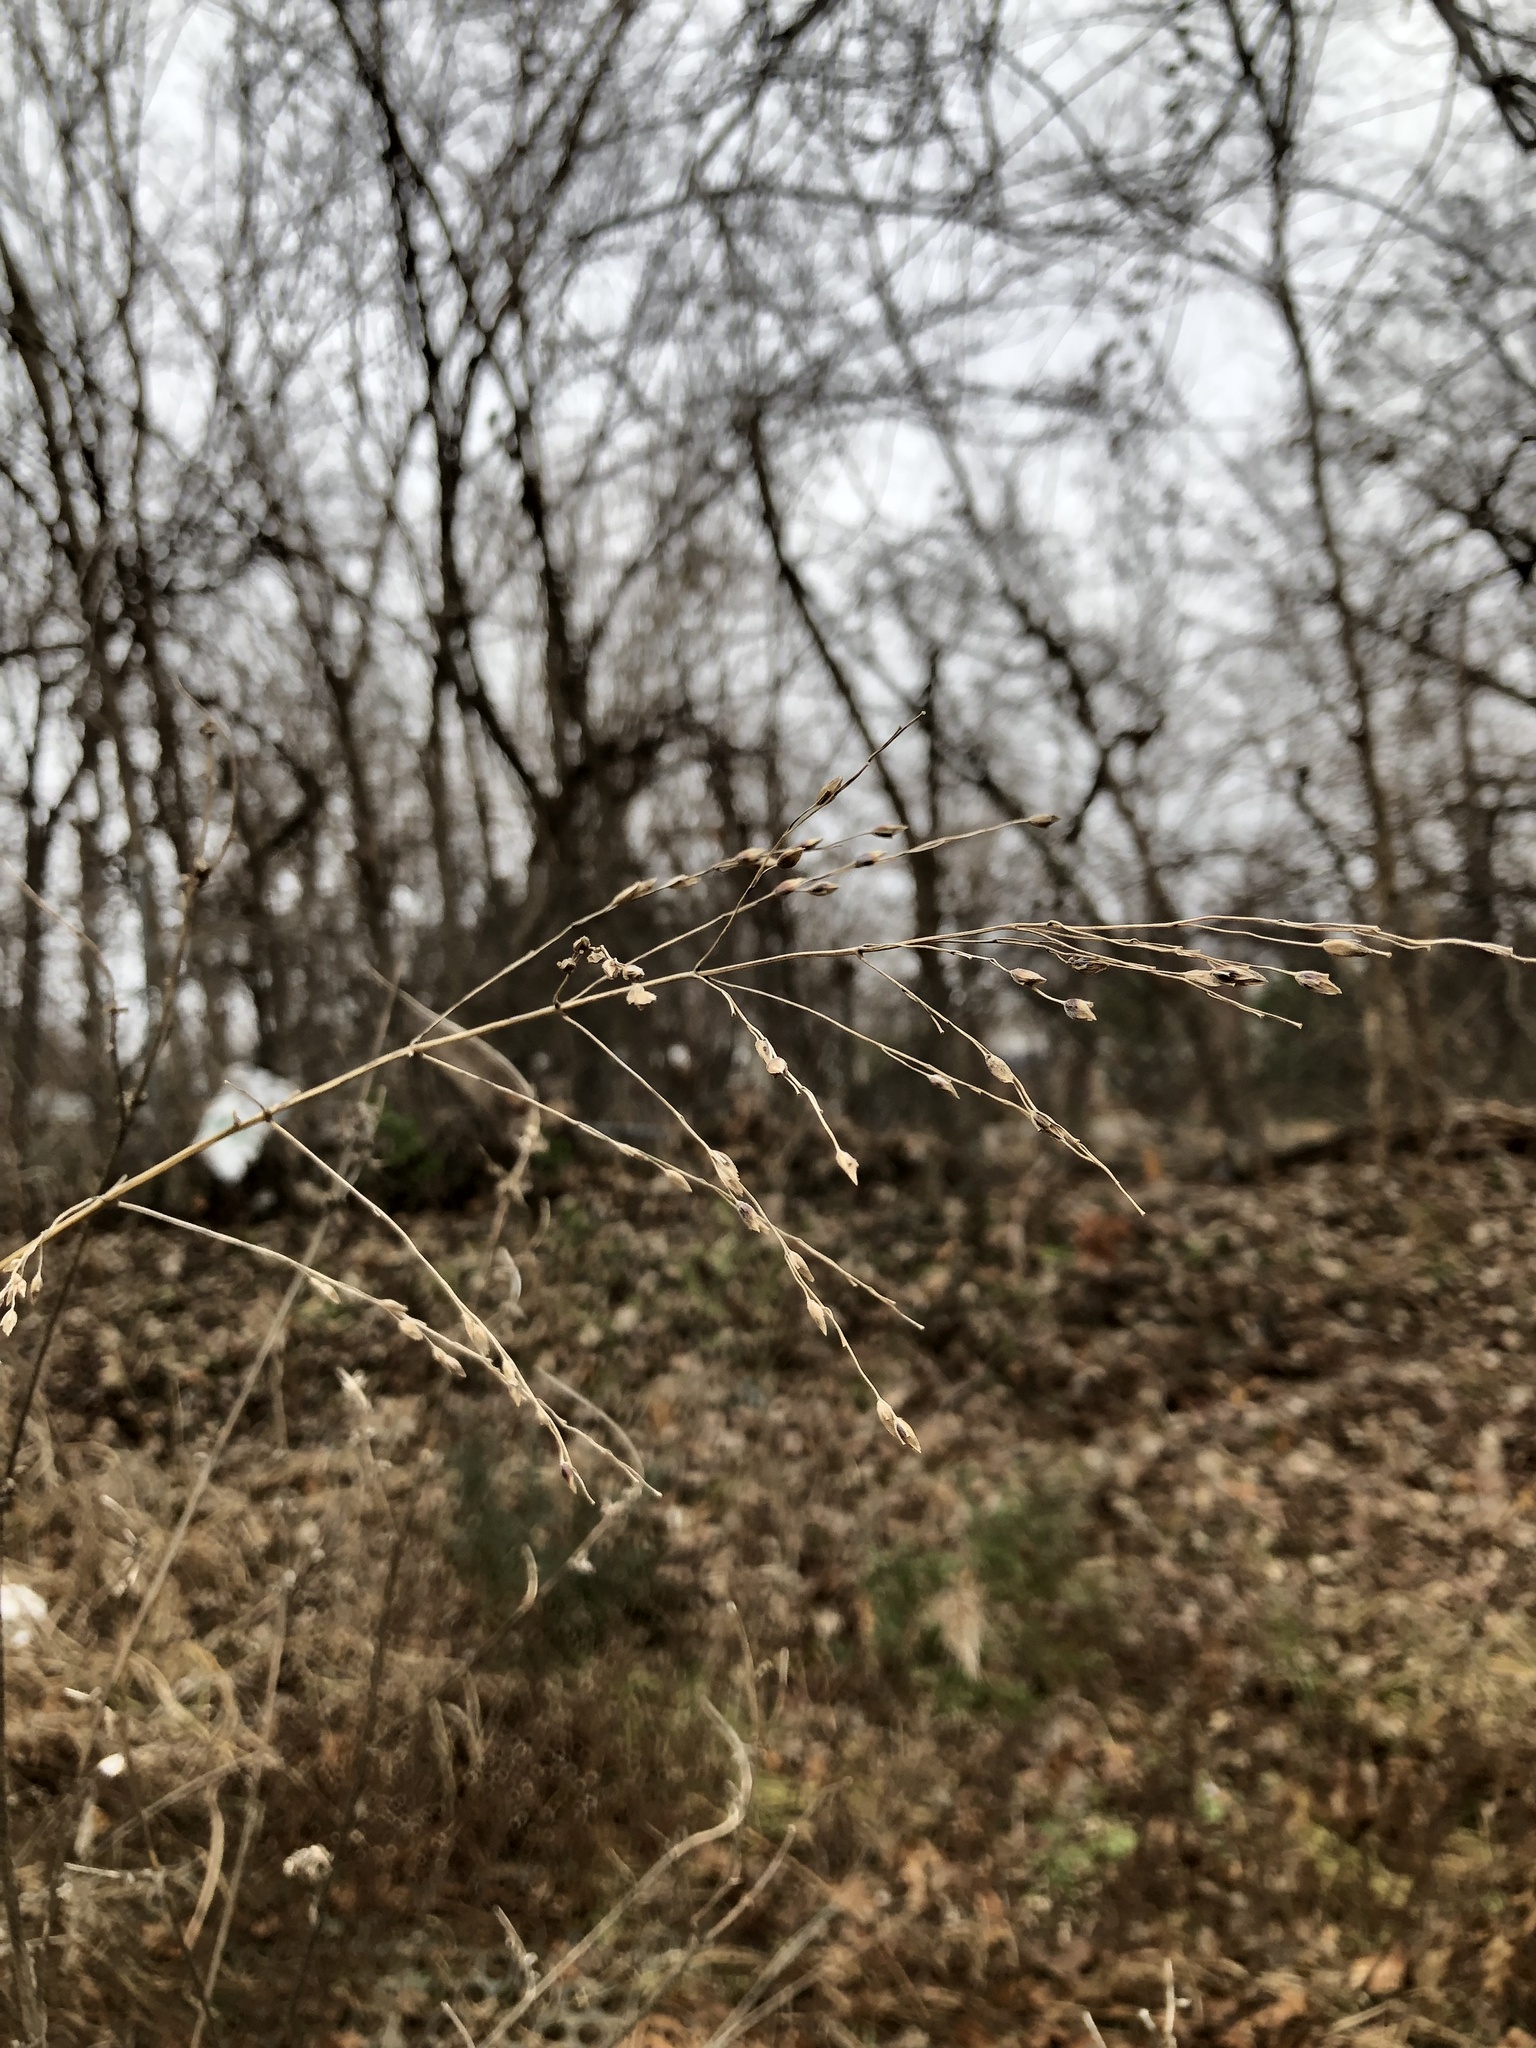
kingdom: Plantae
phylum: Tracheophyta
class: Liliopsida
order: Poales
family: Poaceae
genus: Tridens
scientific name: Tridens flavus
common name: Purpletop
